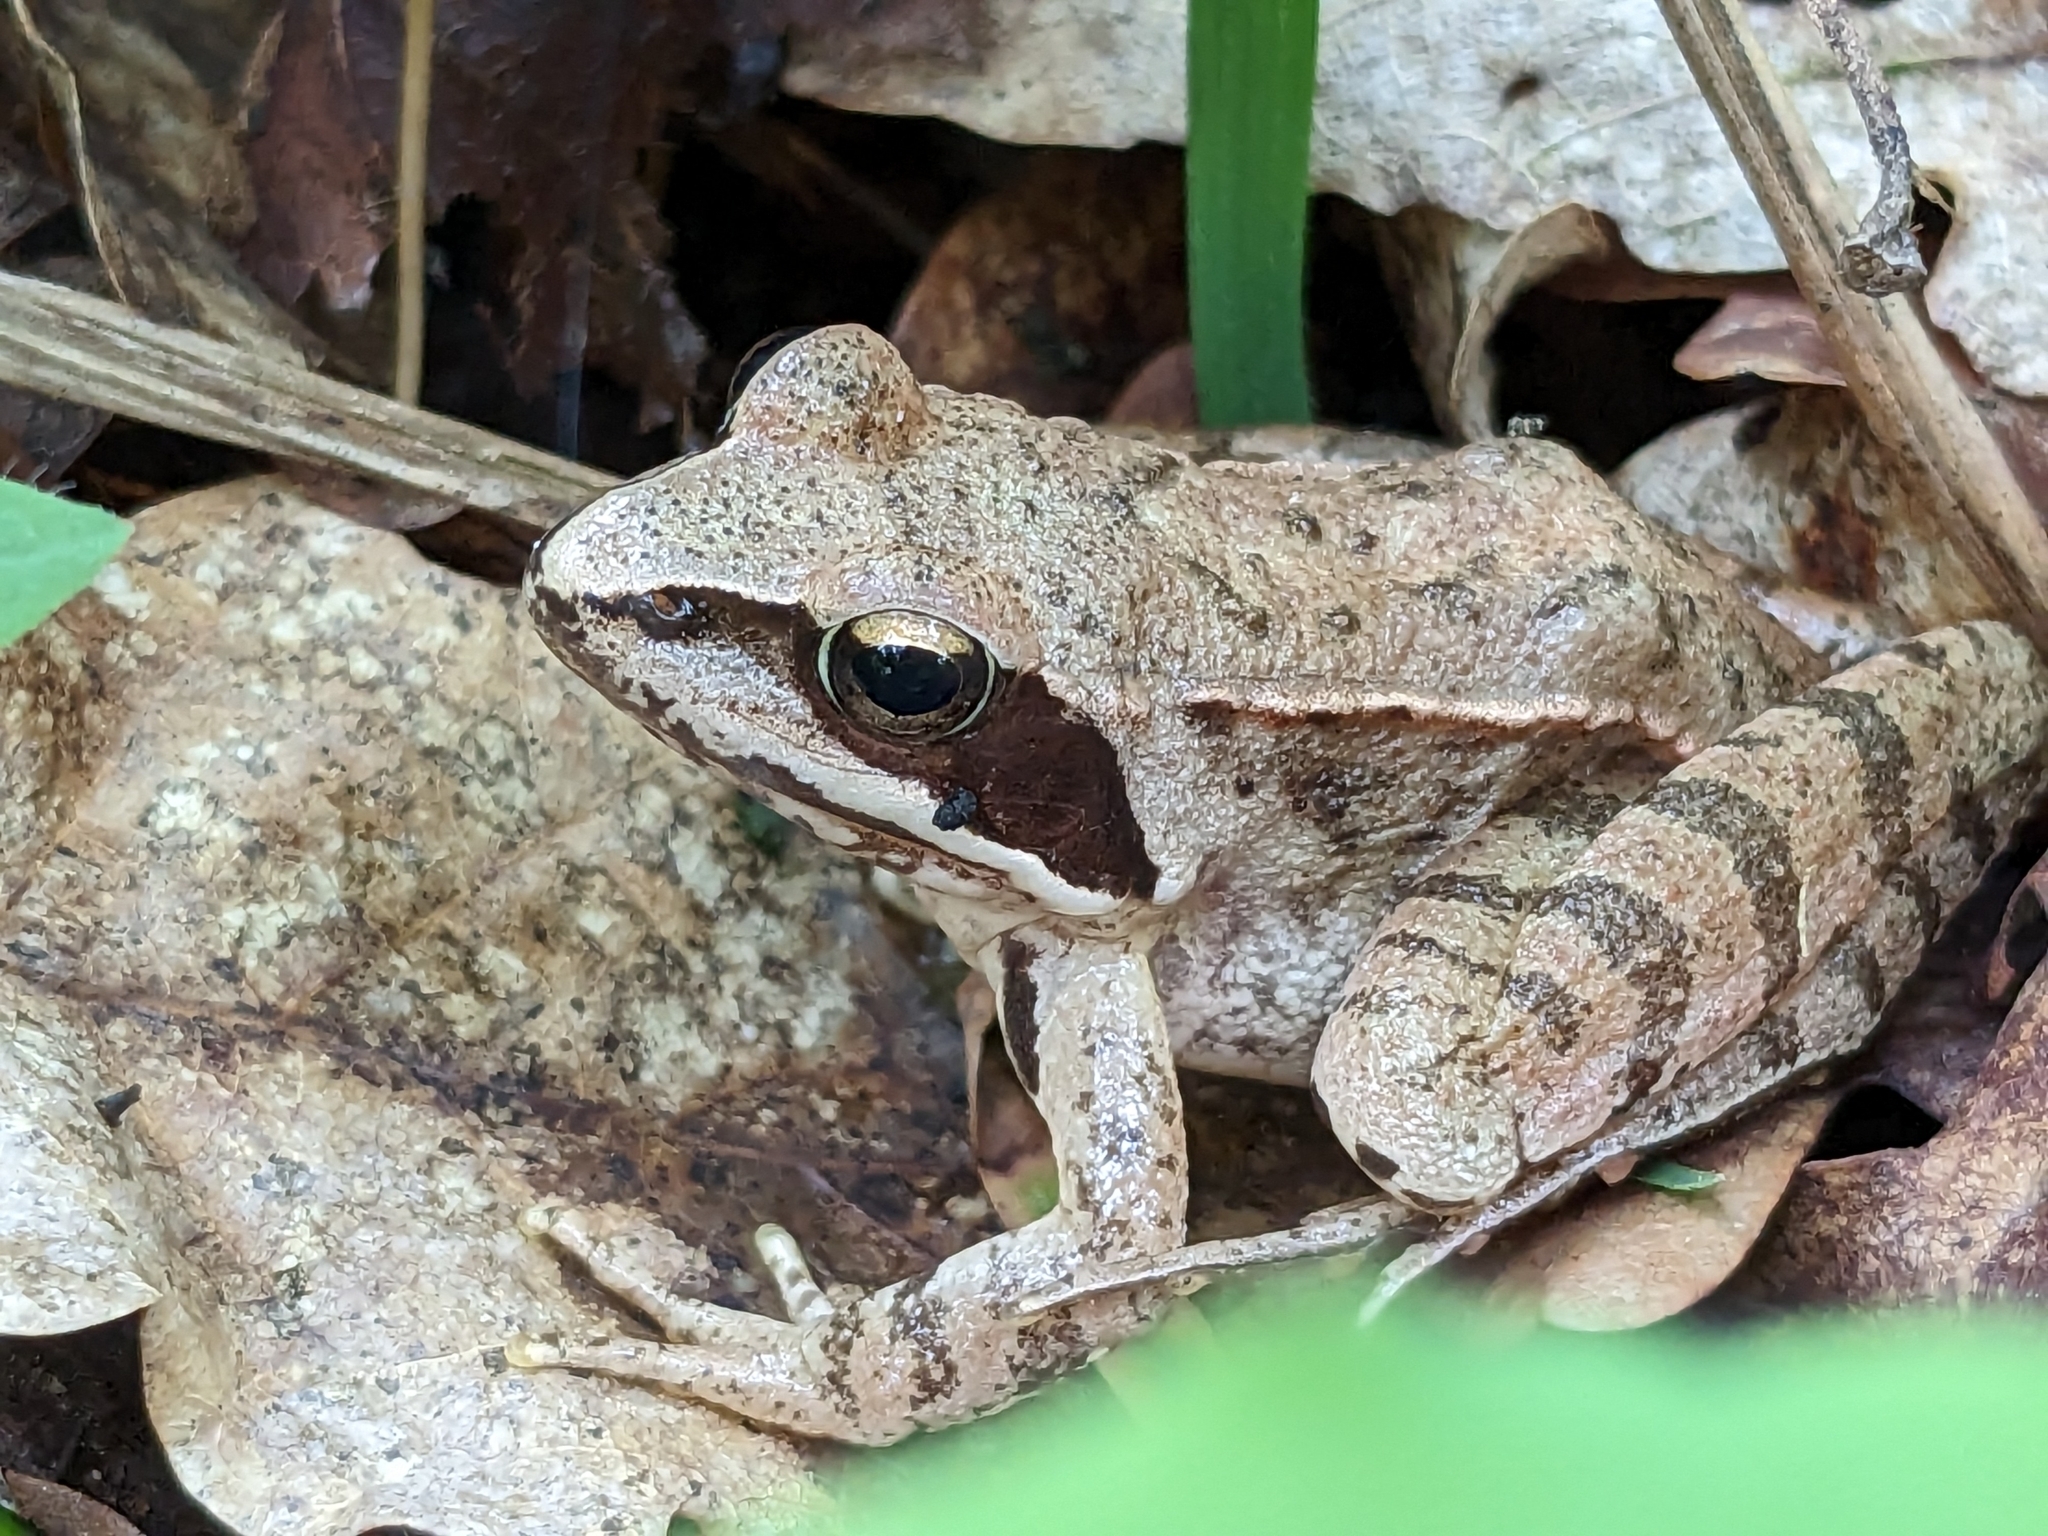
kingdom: Animalia
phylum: Chordata
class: Amphibia
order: Anura
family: Ranidae
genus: Rana
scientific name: Rana dalmatina
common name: Agile frog
